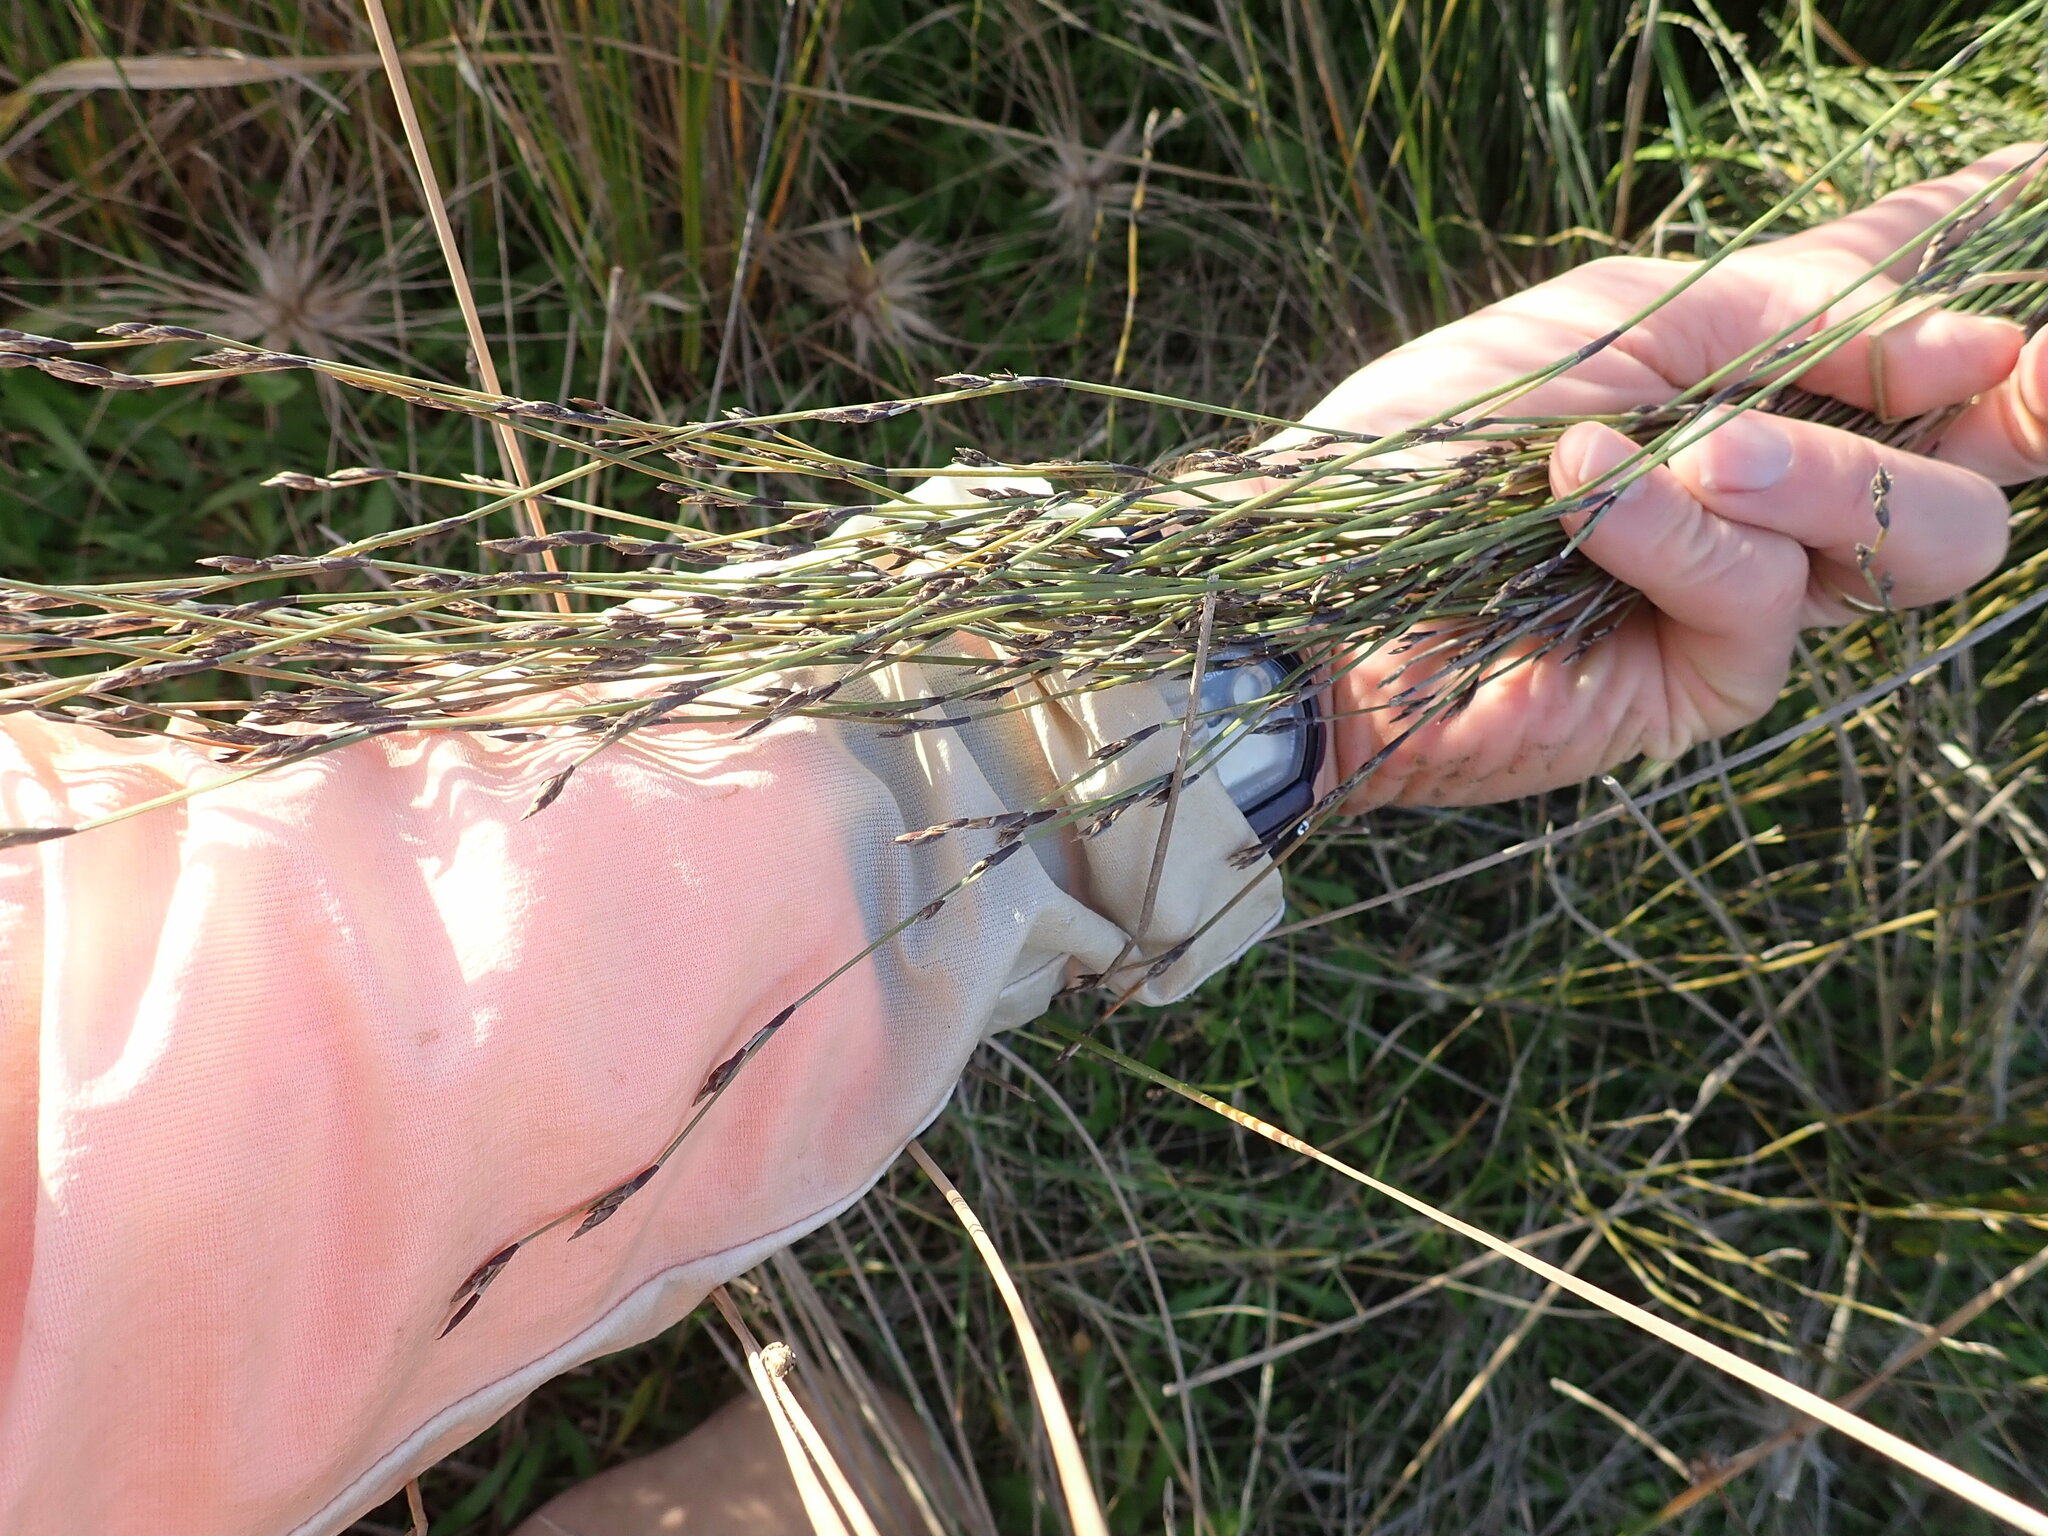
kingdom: Plantae
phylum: Tracheophyta
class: Liliopsida
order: Poales
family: Restionaceae
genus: Apodasmia
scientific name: Apodasmia similis
